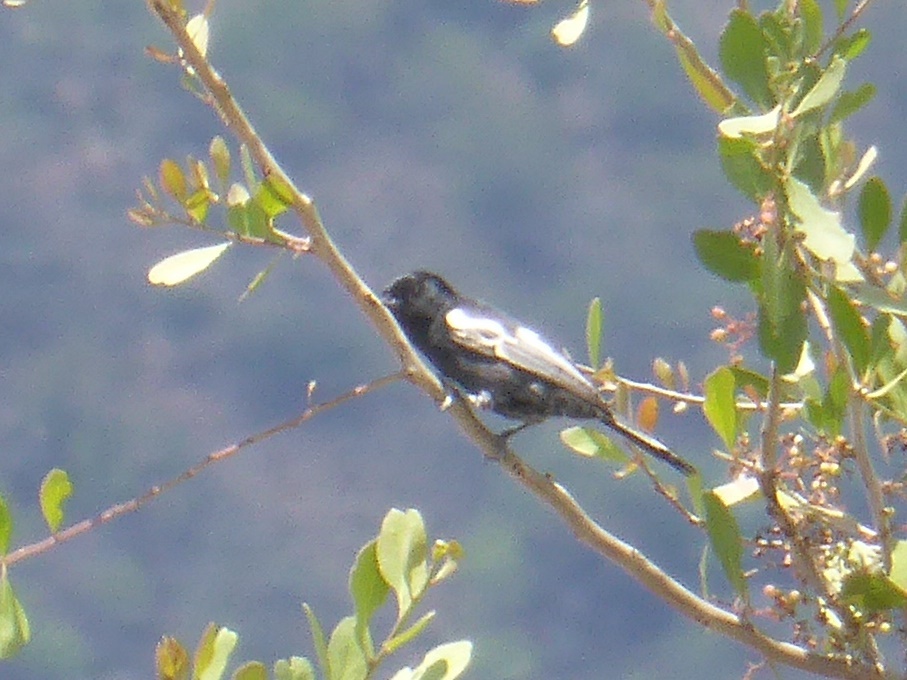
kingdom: Animalia
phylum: Chordata
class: Aves
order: Passeriformes
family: Paridae
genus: Parus
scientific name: Parus niger
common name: Southern black tit
